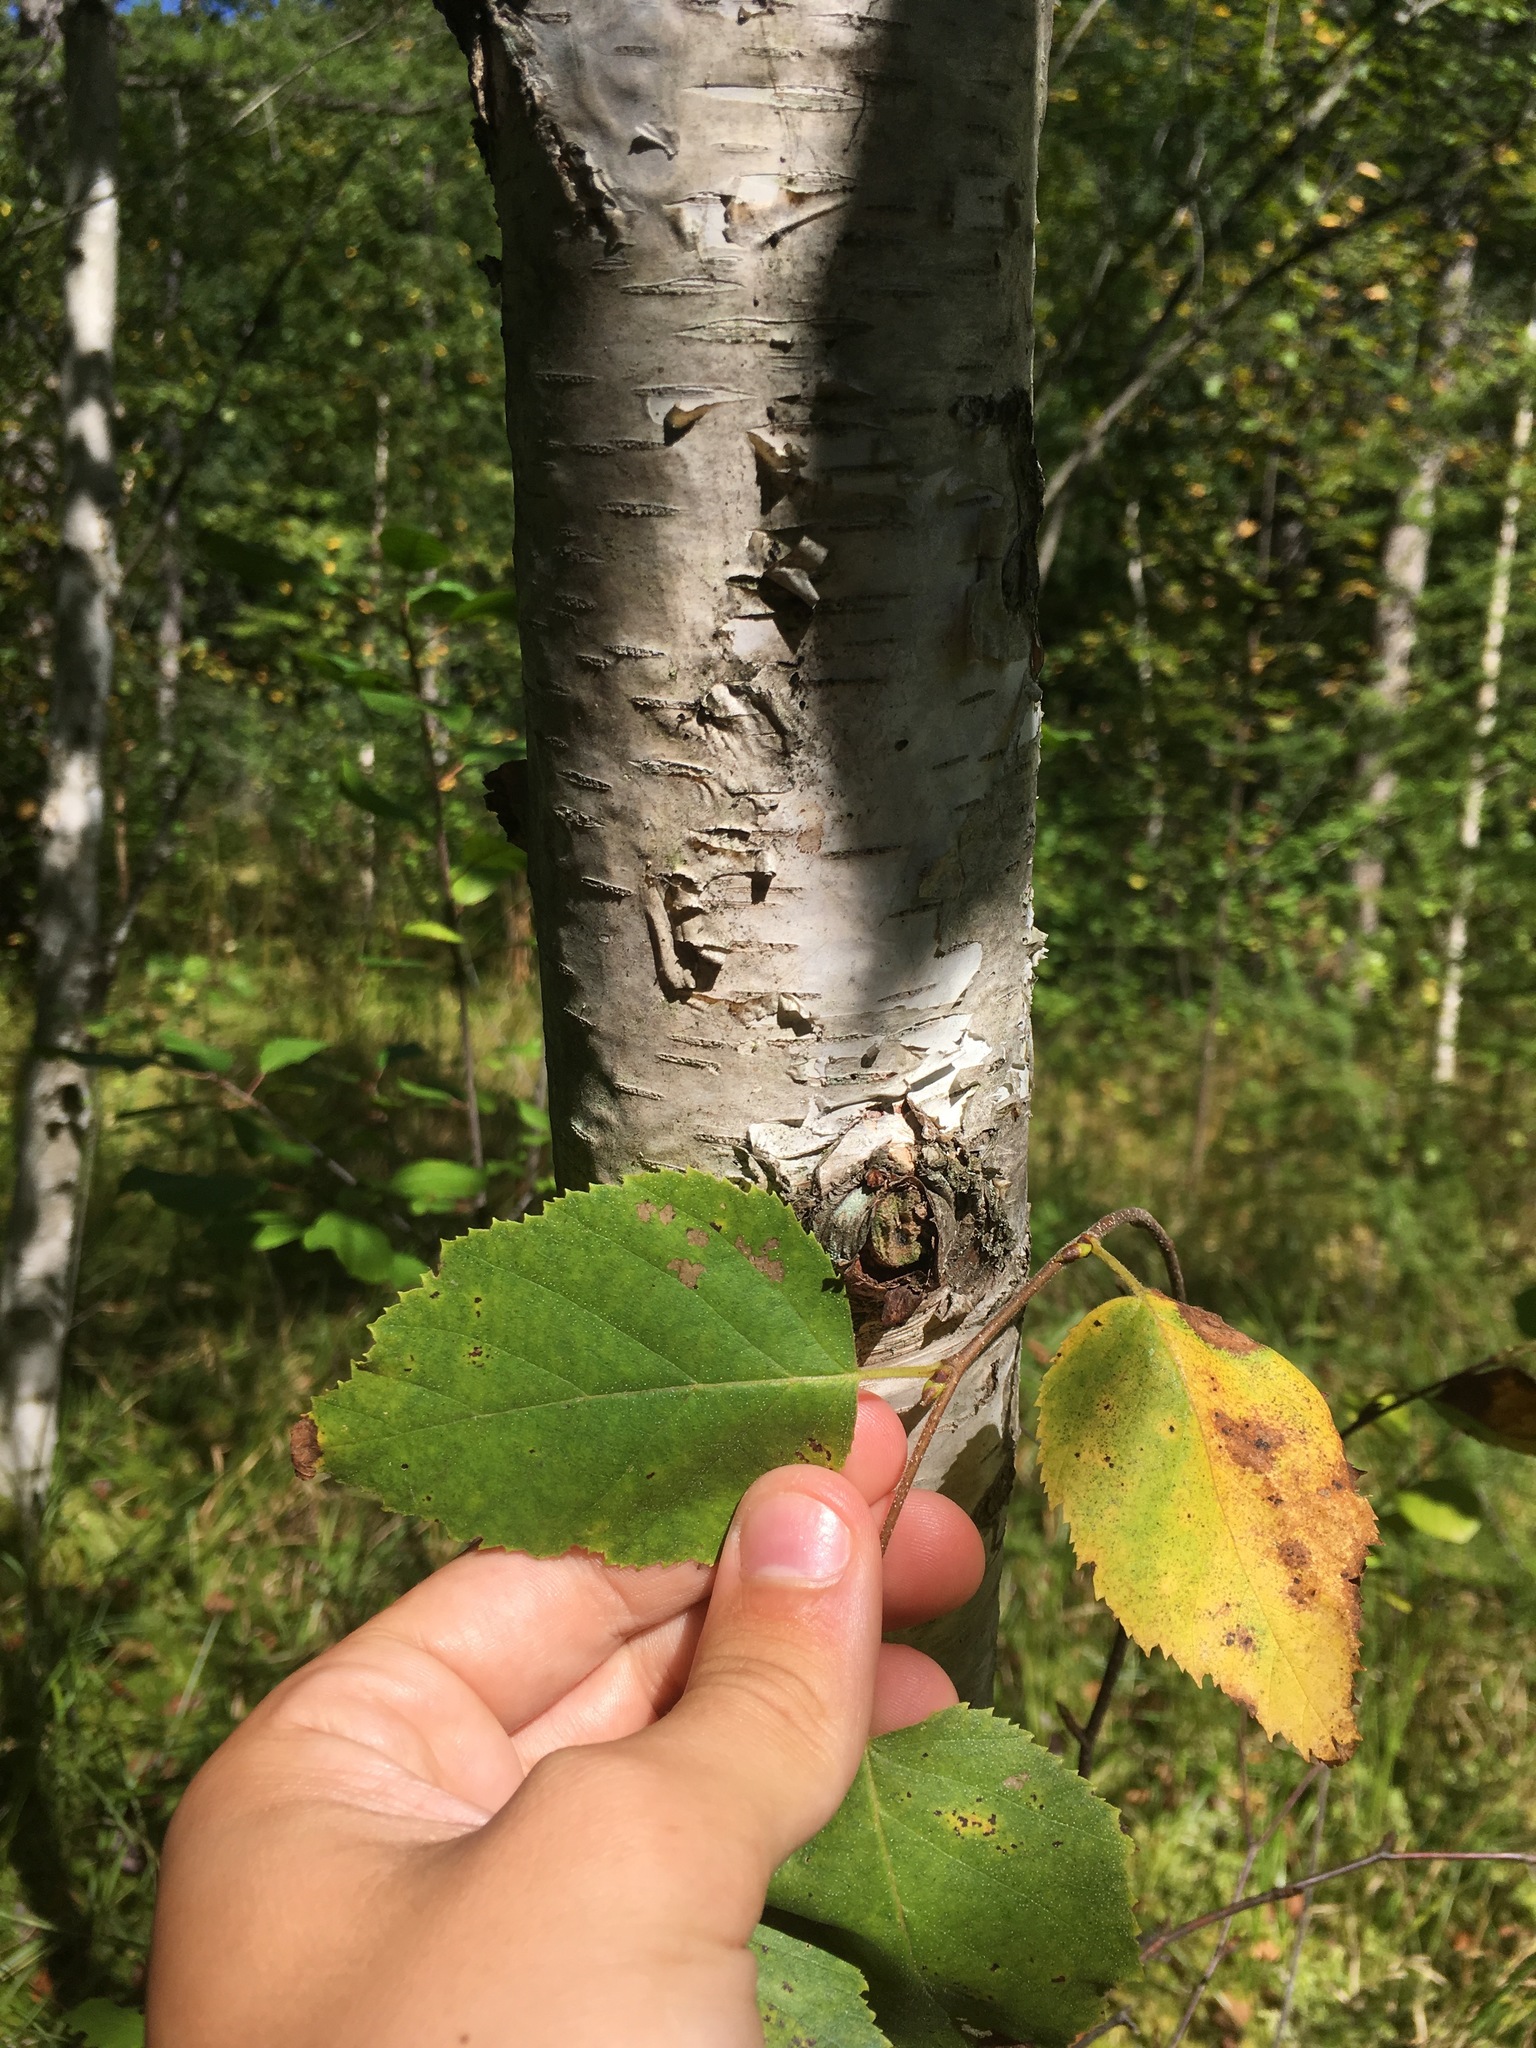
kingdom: Plantae
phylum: Tracheophyta
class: Magnoliopsida
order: Fagales
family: Betulaceae
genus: Betula
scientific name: Betula papyrifera
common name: Paper birch
